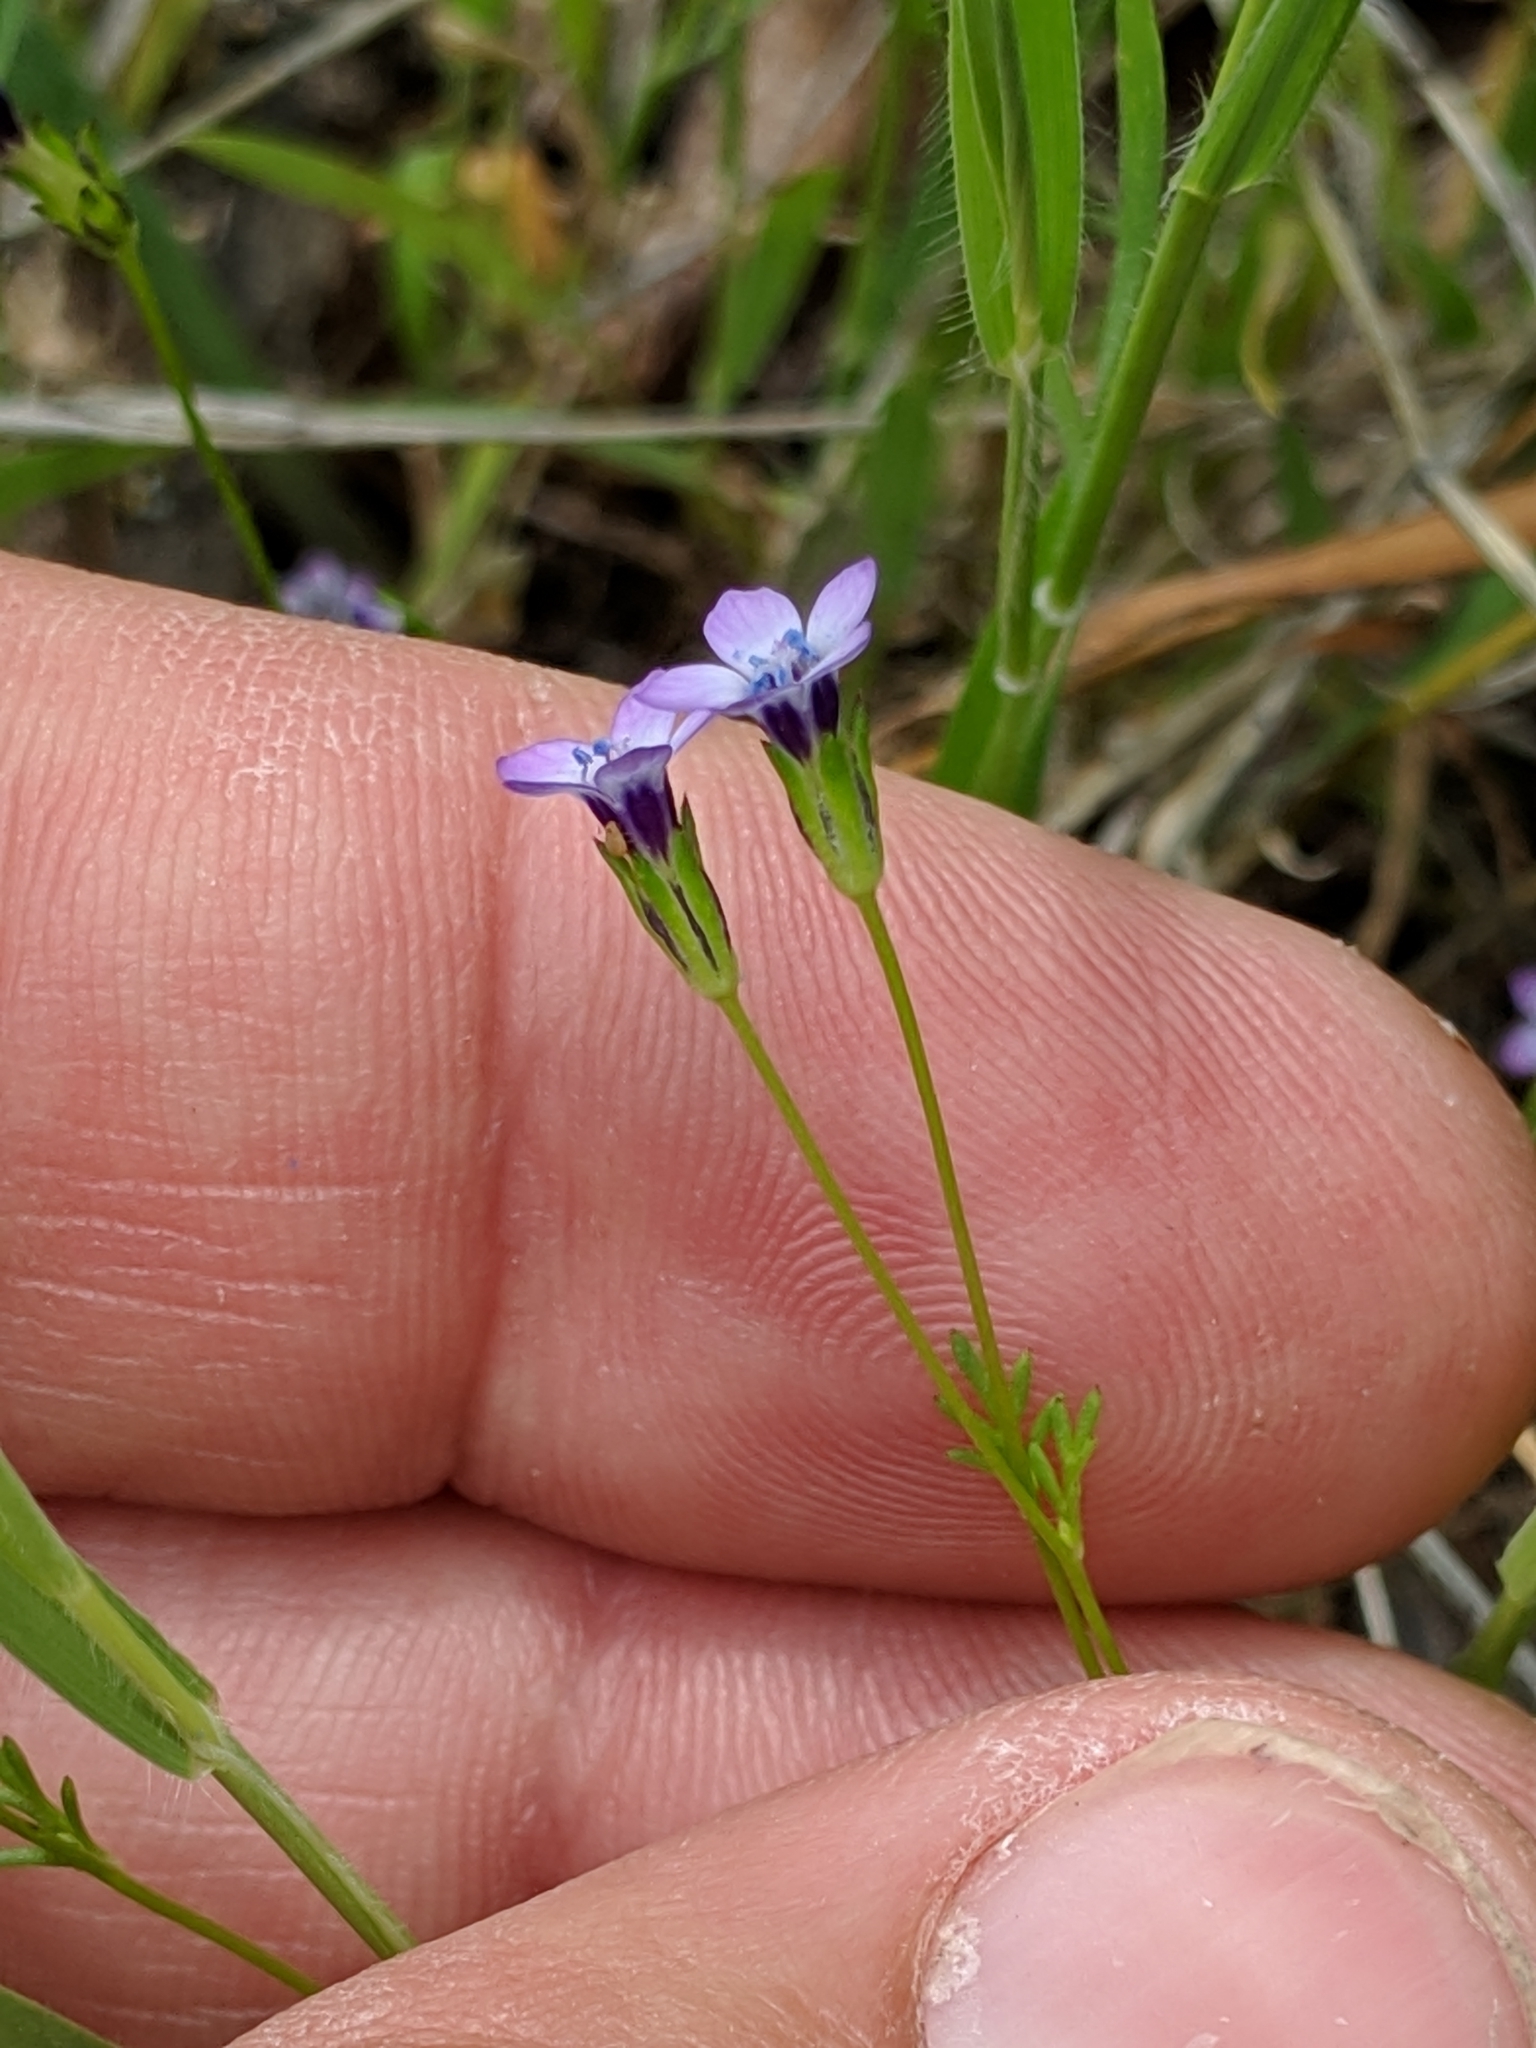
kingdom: Plantae
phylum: Tracheophyta
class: Magnoliopsida
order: Ericales
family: Polemoniaceae
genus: Gilia
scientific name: Gilia clivorum
